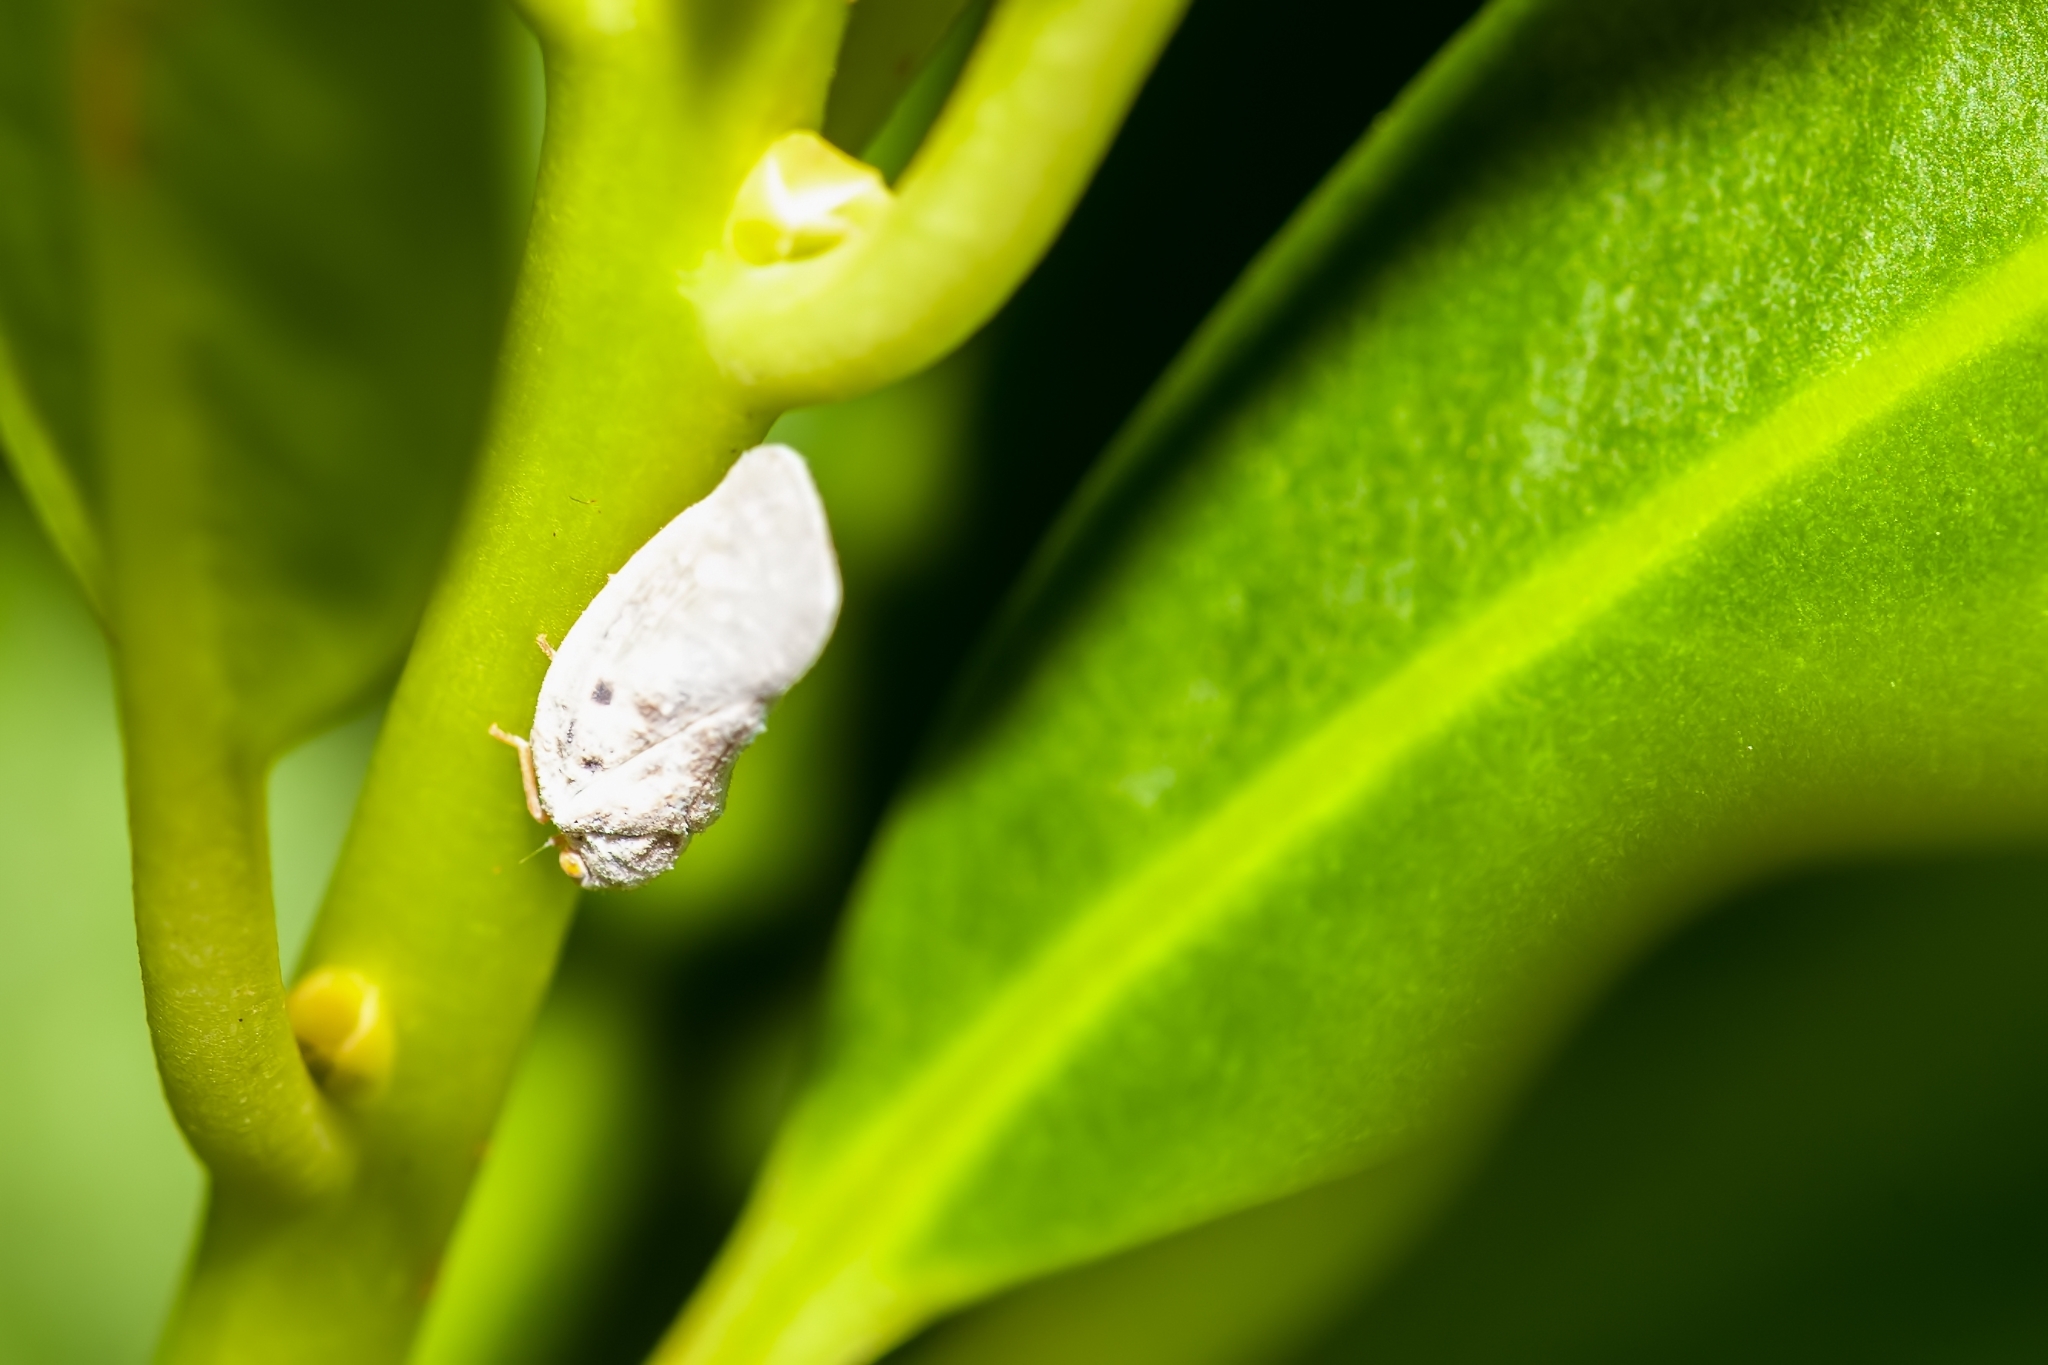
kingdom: Animalia
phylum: Arthropoda
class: Insecta
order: Hemiptera
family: Flatidae
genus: Metcalfa
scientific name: Metcalfa pruinosa
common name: Citrus flatid planthopper
